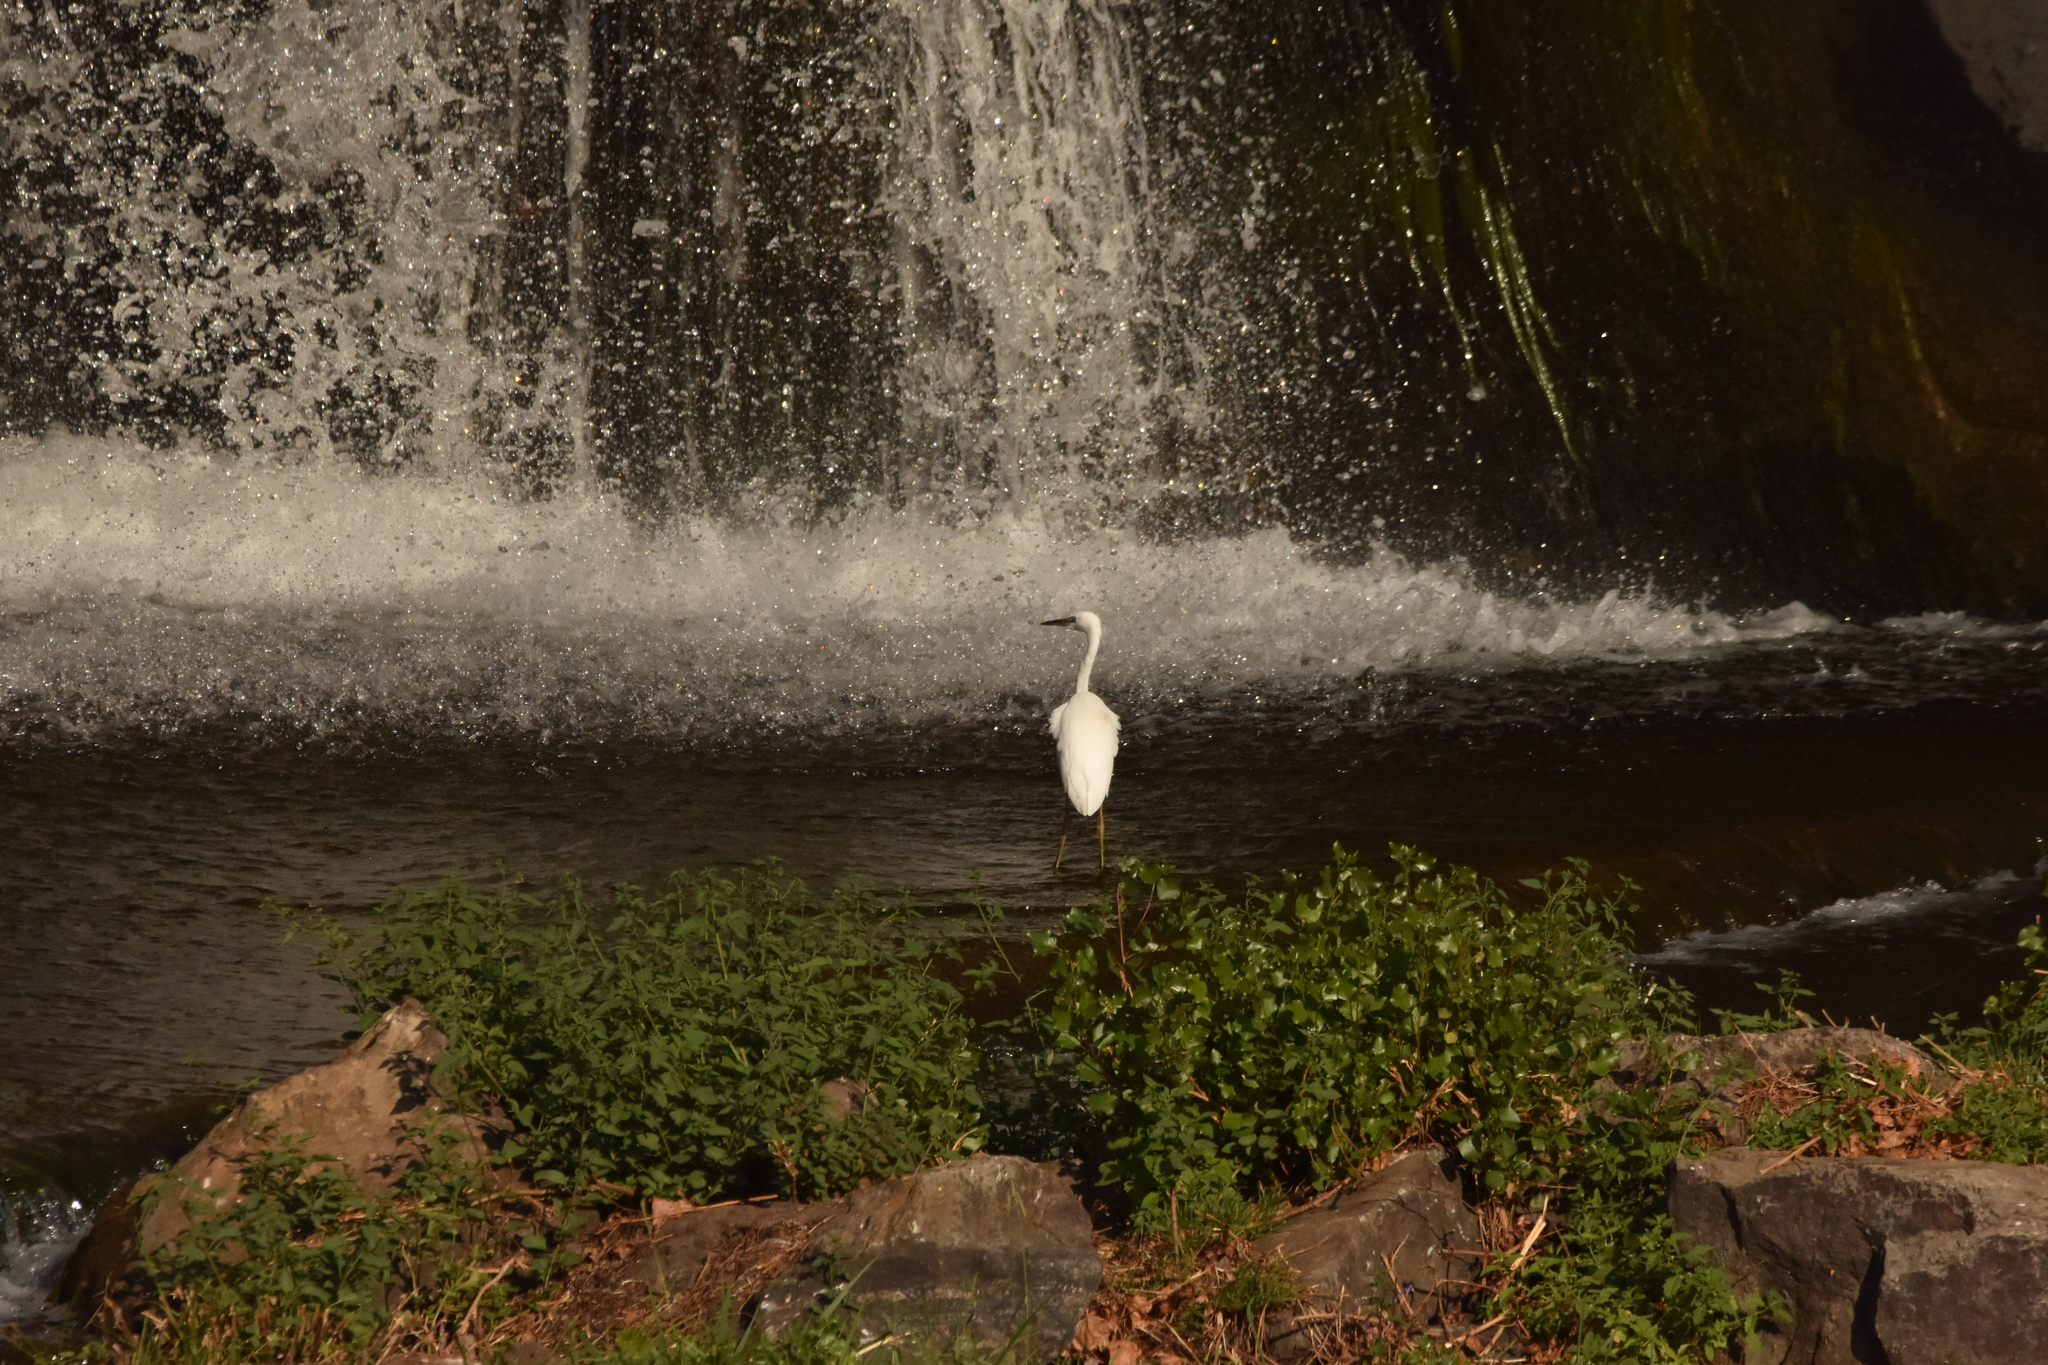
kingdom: Animalia
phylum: Chordata
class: Aves
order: Pelecaniformes
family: Ardeidae
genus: Egretta
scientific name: Egretta garzetta
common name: Little egret
